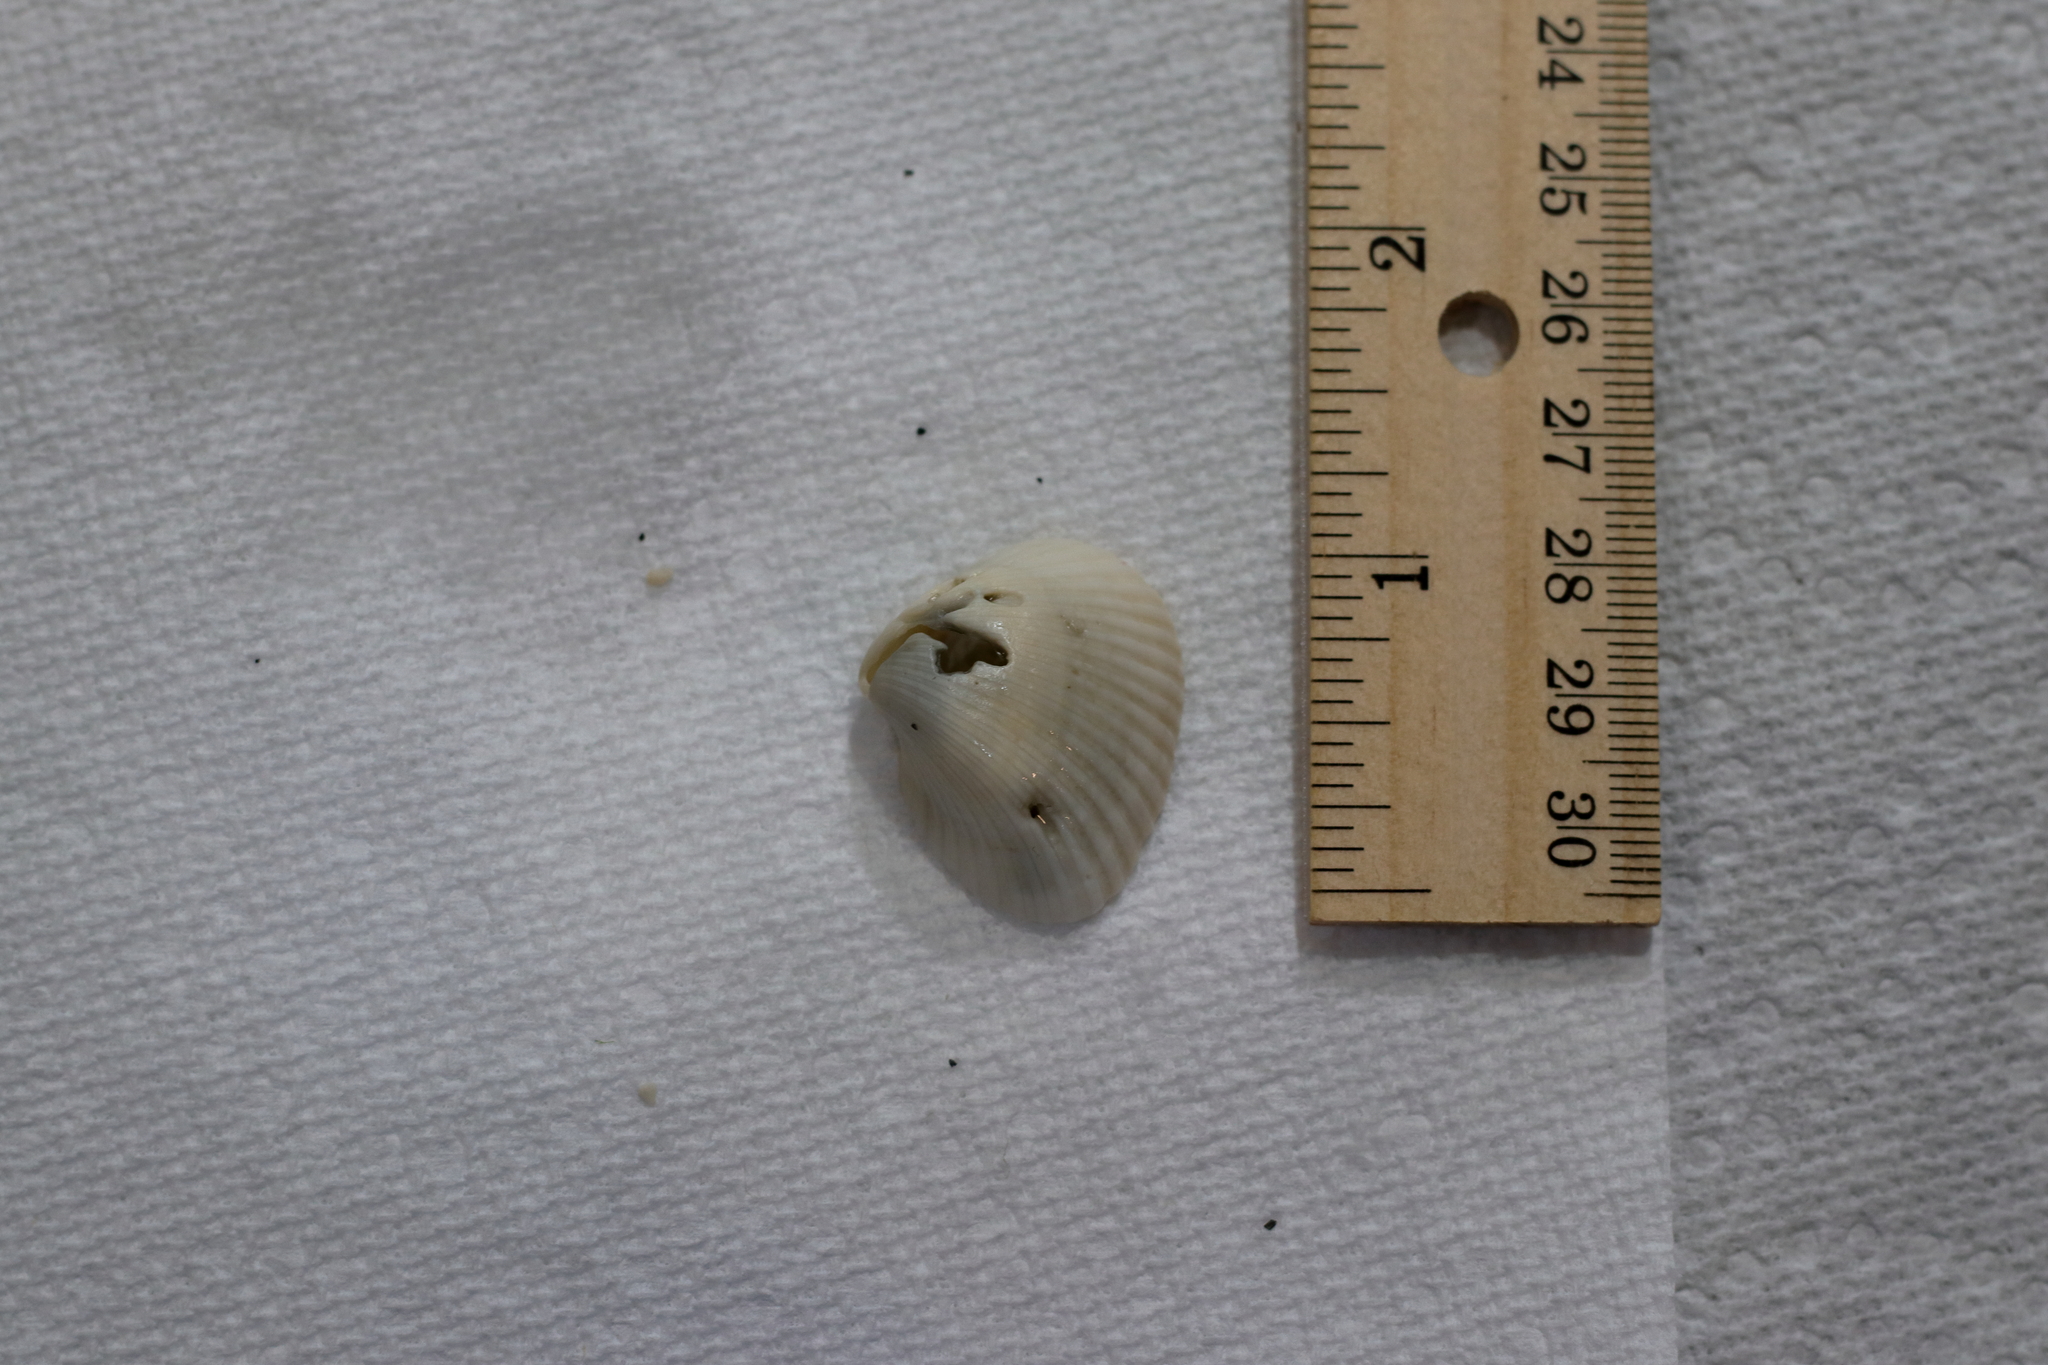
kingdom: Animalia
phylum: Mollusca
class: Bivalvia
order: Arcida
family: Noetiidae
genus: Noetia
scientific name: Noetia ponderosa
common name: Ponderous ark
